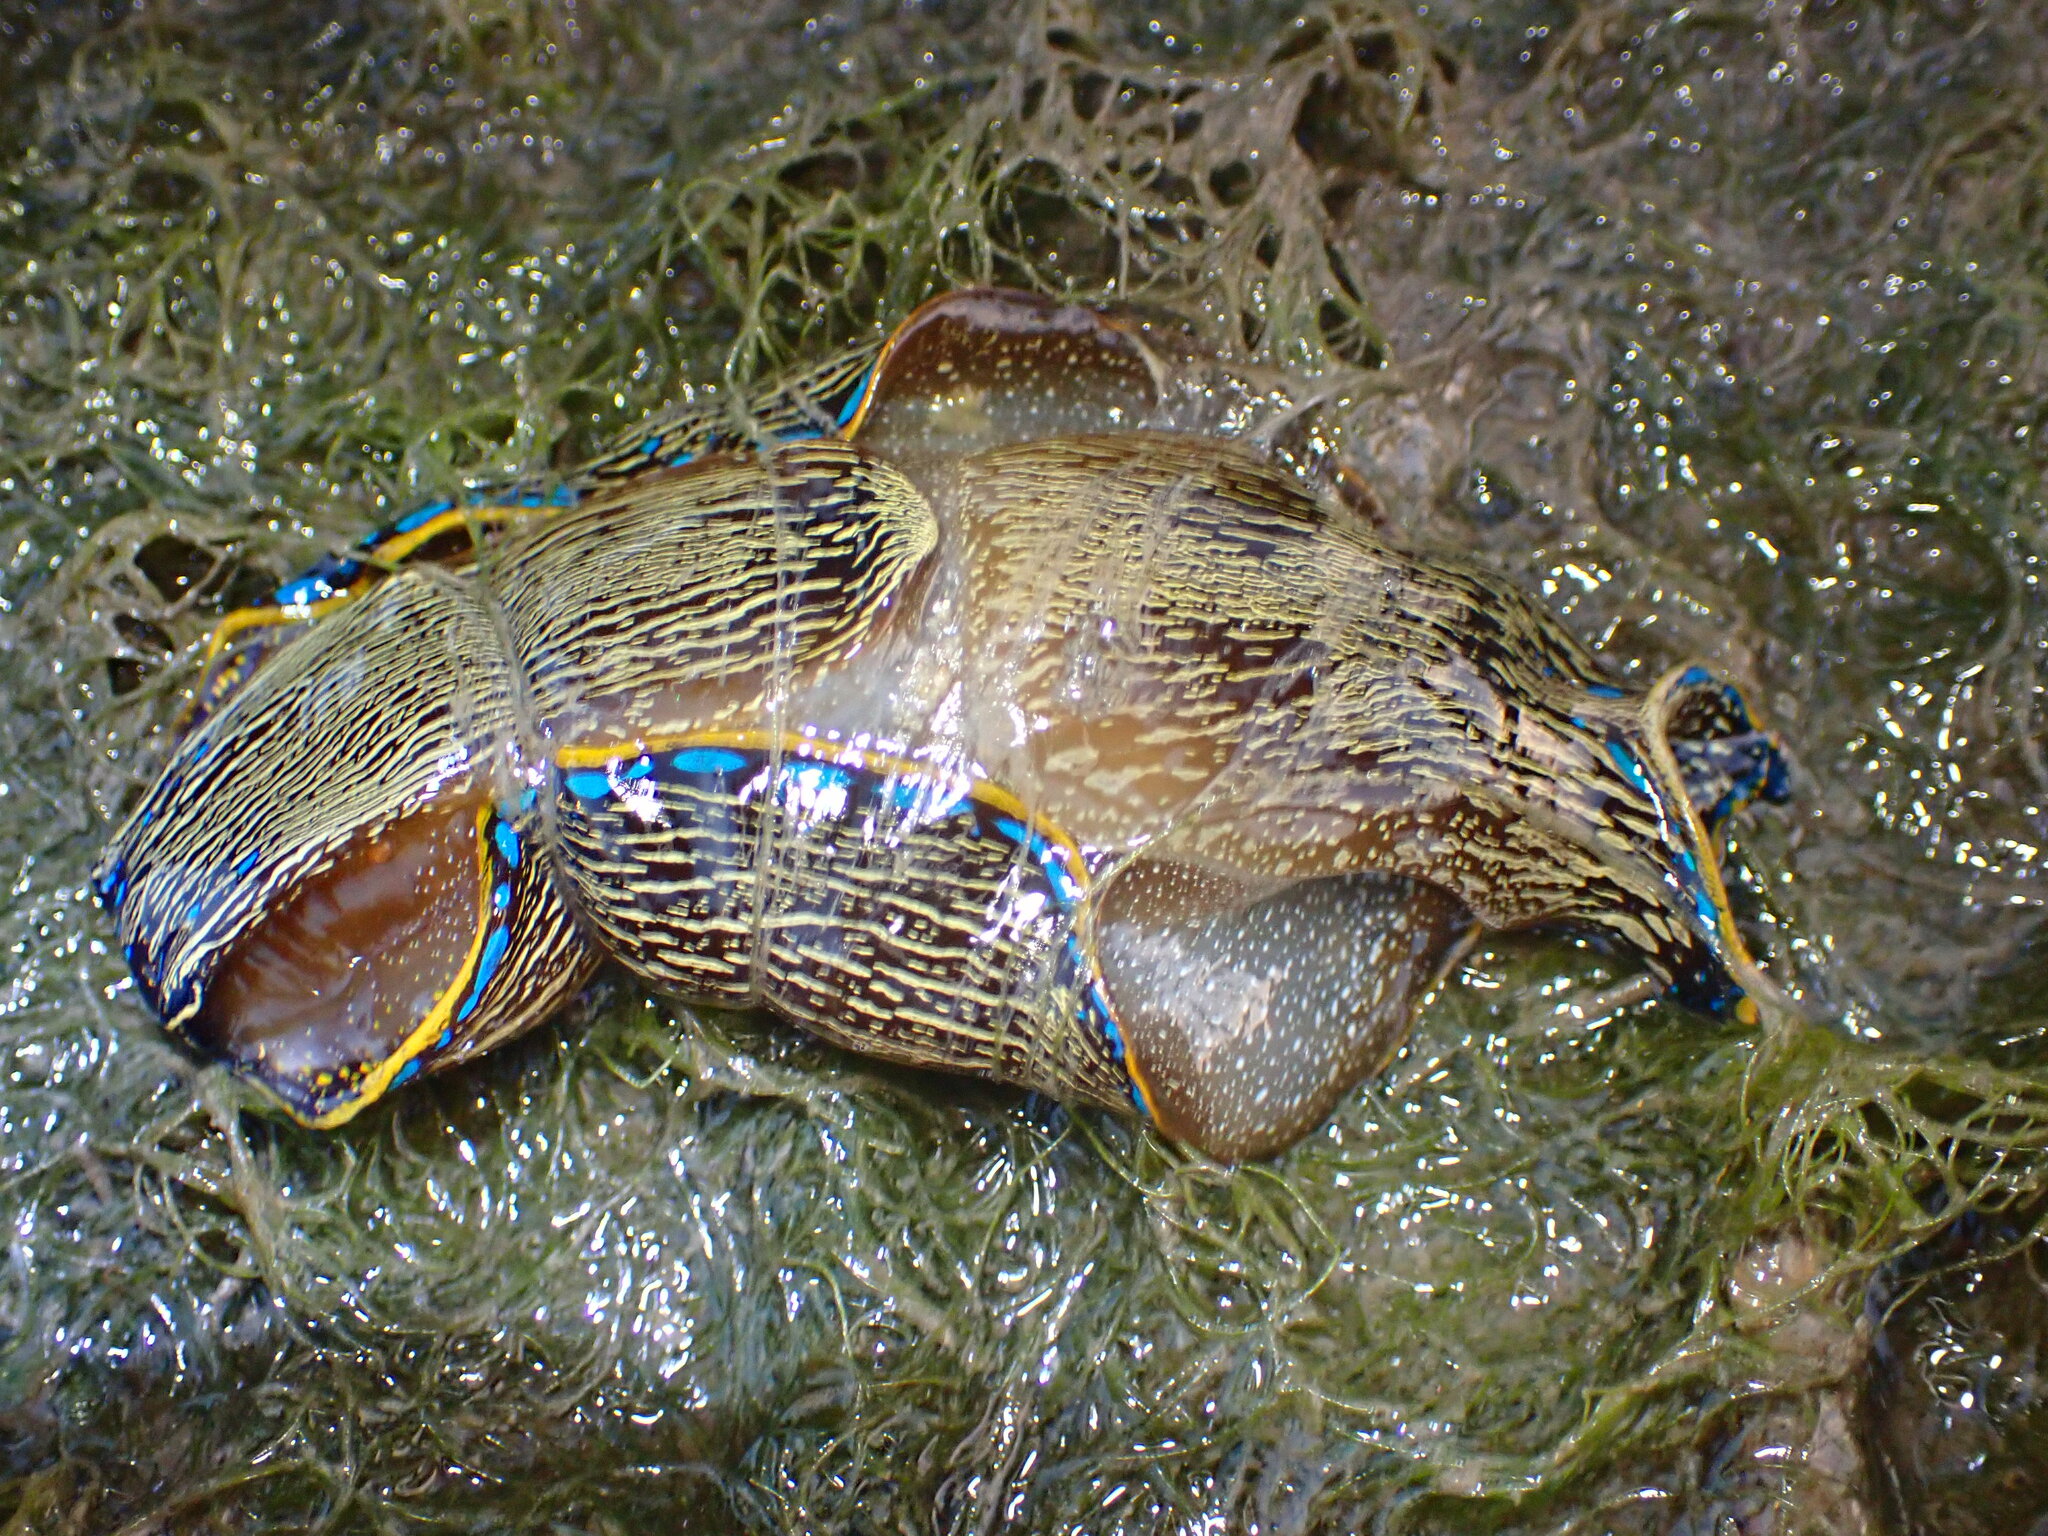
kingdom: Animalia
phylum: Mollusca
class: Gastropoda
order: Cephalaspidea
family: Aglajidae
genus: Navanax
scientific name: Navanax inermis
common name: California aglaja
